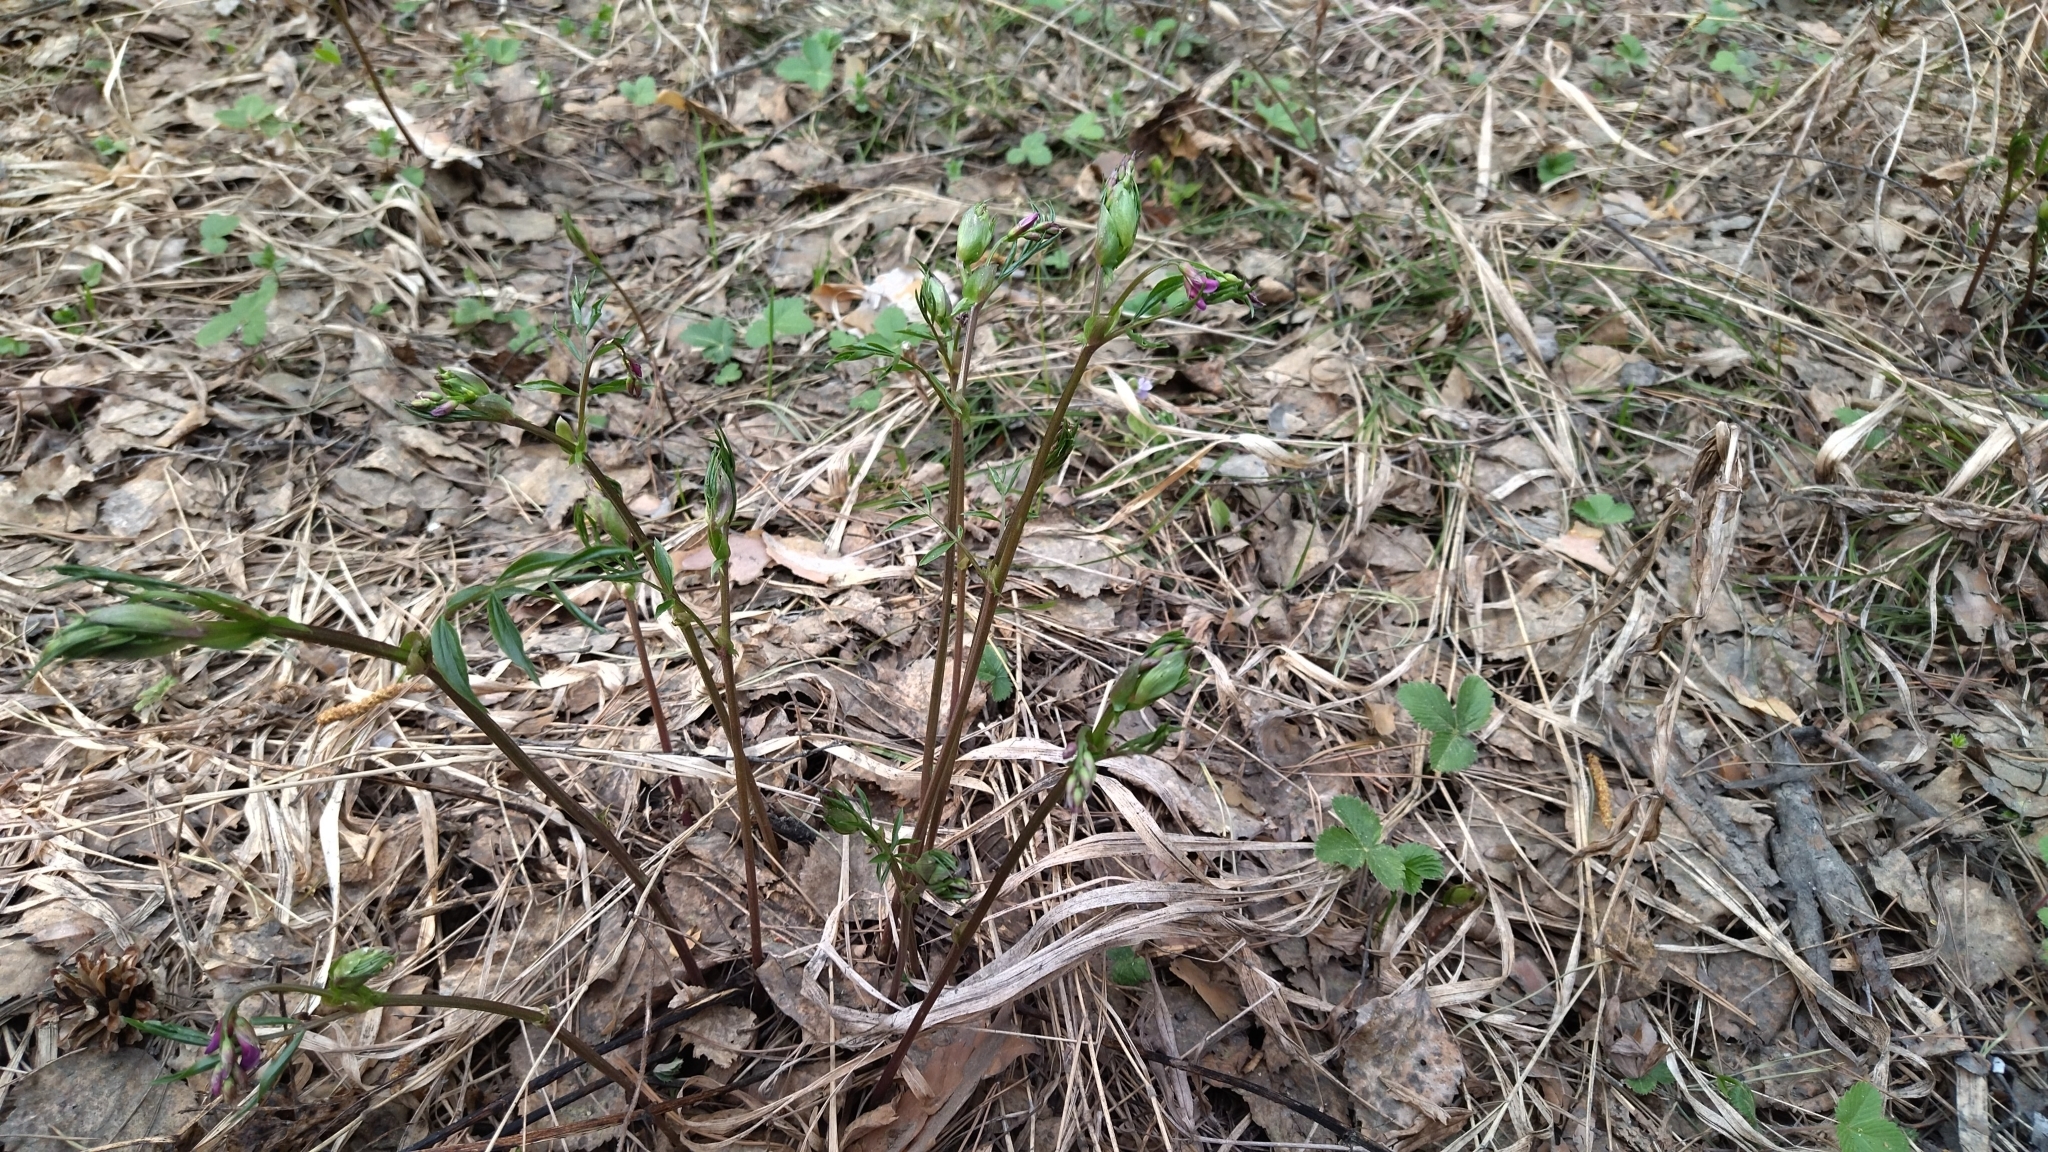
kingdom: Plantae
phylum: Tracheophyta
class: Magnoliopsida
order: Fabales
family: Fabaceae
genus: Lathyrus
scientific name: Lathyrus vernus
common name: Spring pea
